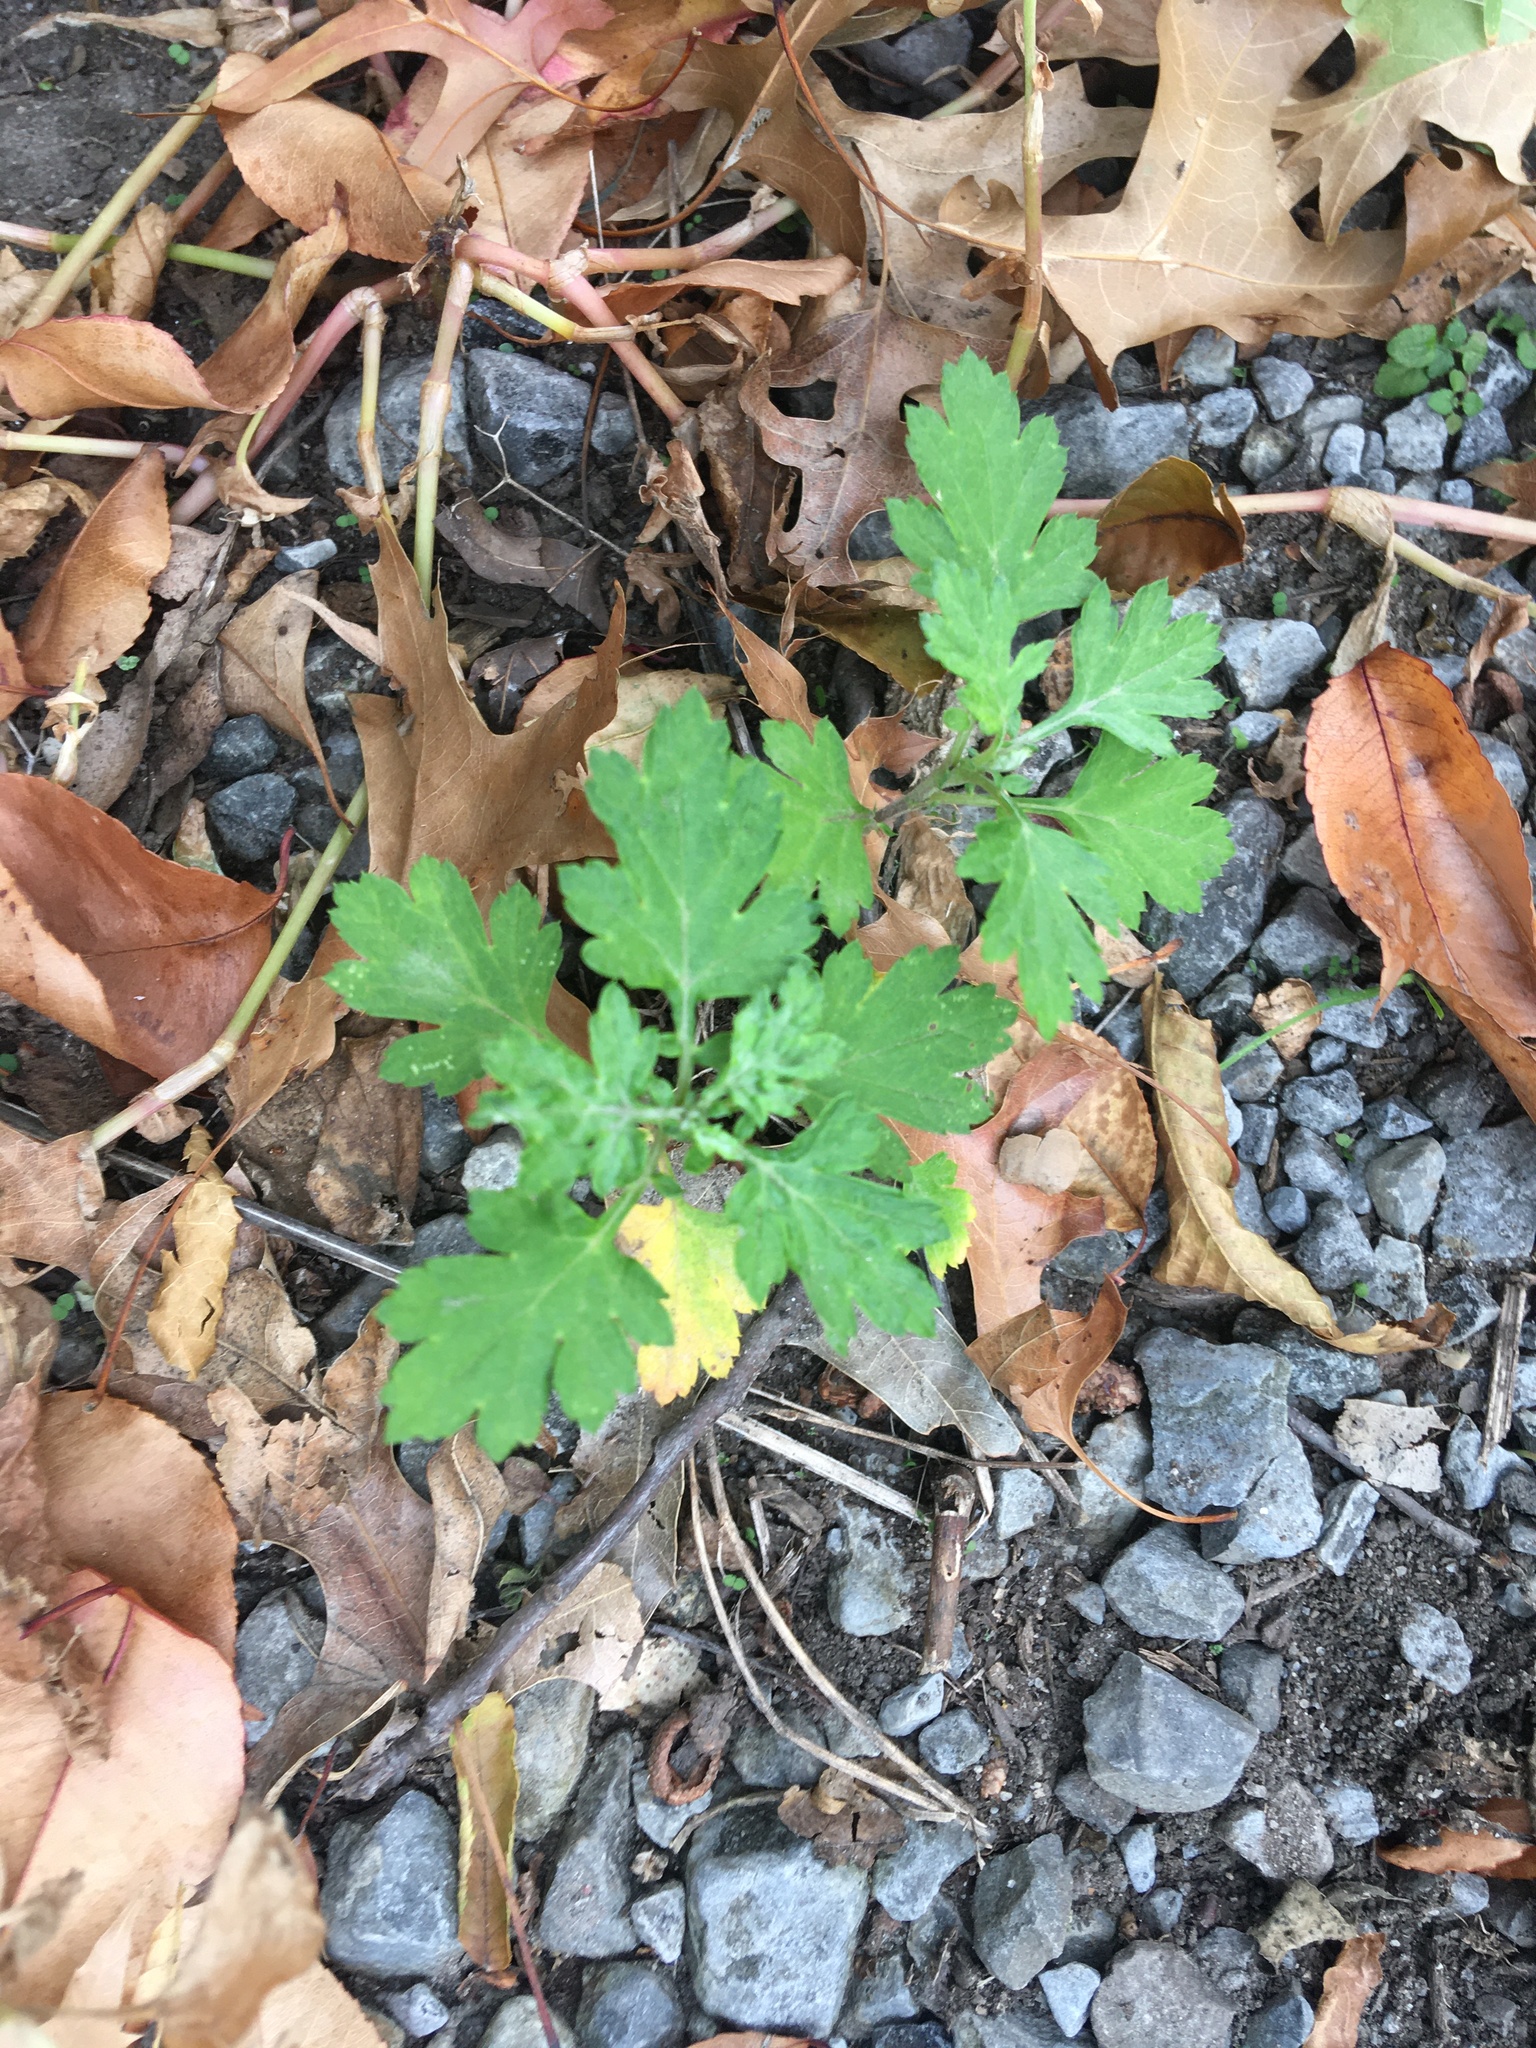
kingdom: Plantae
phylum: Tracheophyta
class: Magnoliopsida
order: Asterales
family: Asteraceae
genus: Artemisia
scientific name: Artemisia vulgaris
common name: Mugwort
